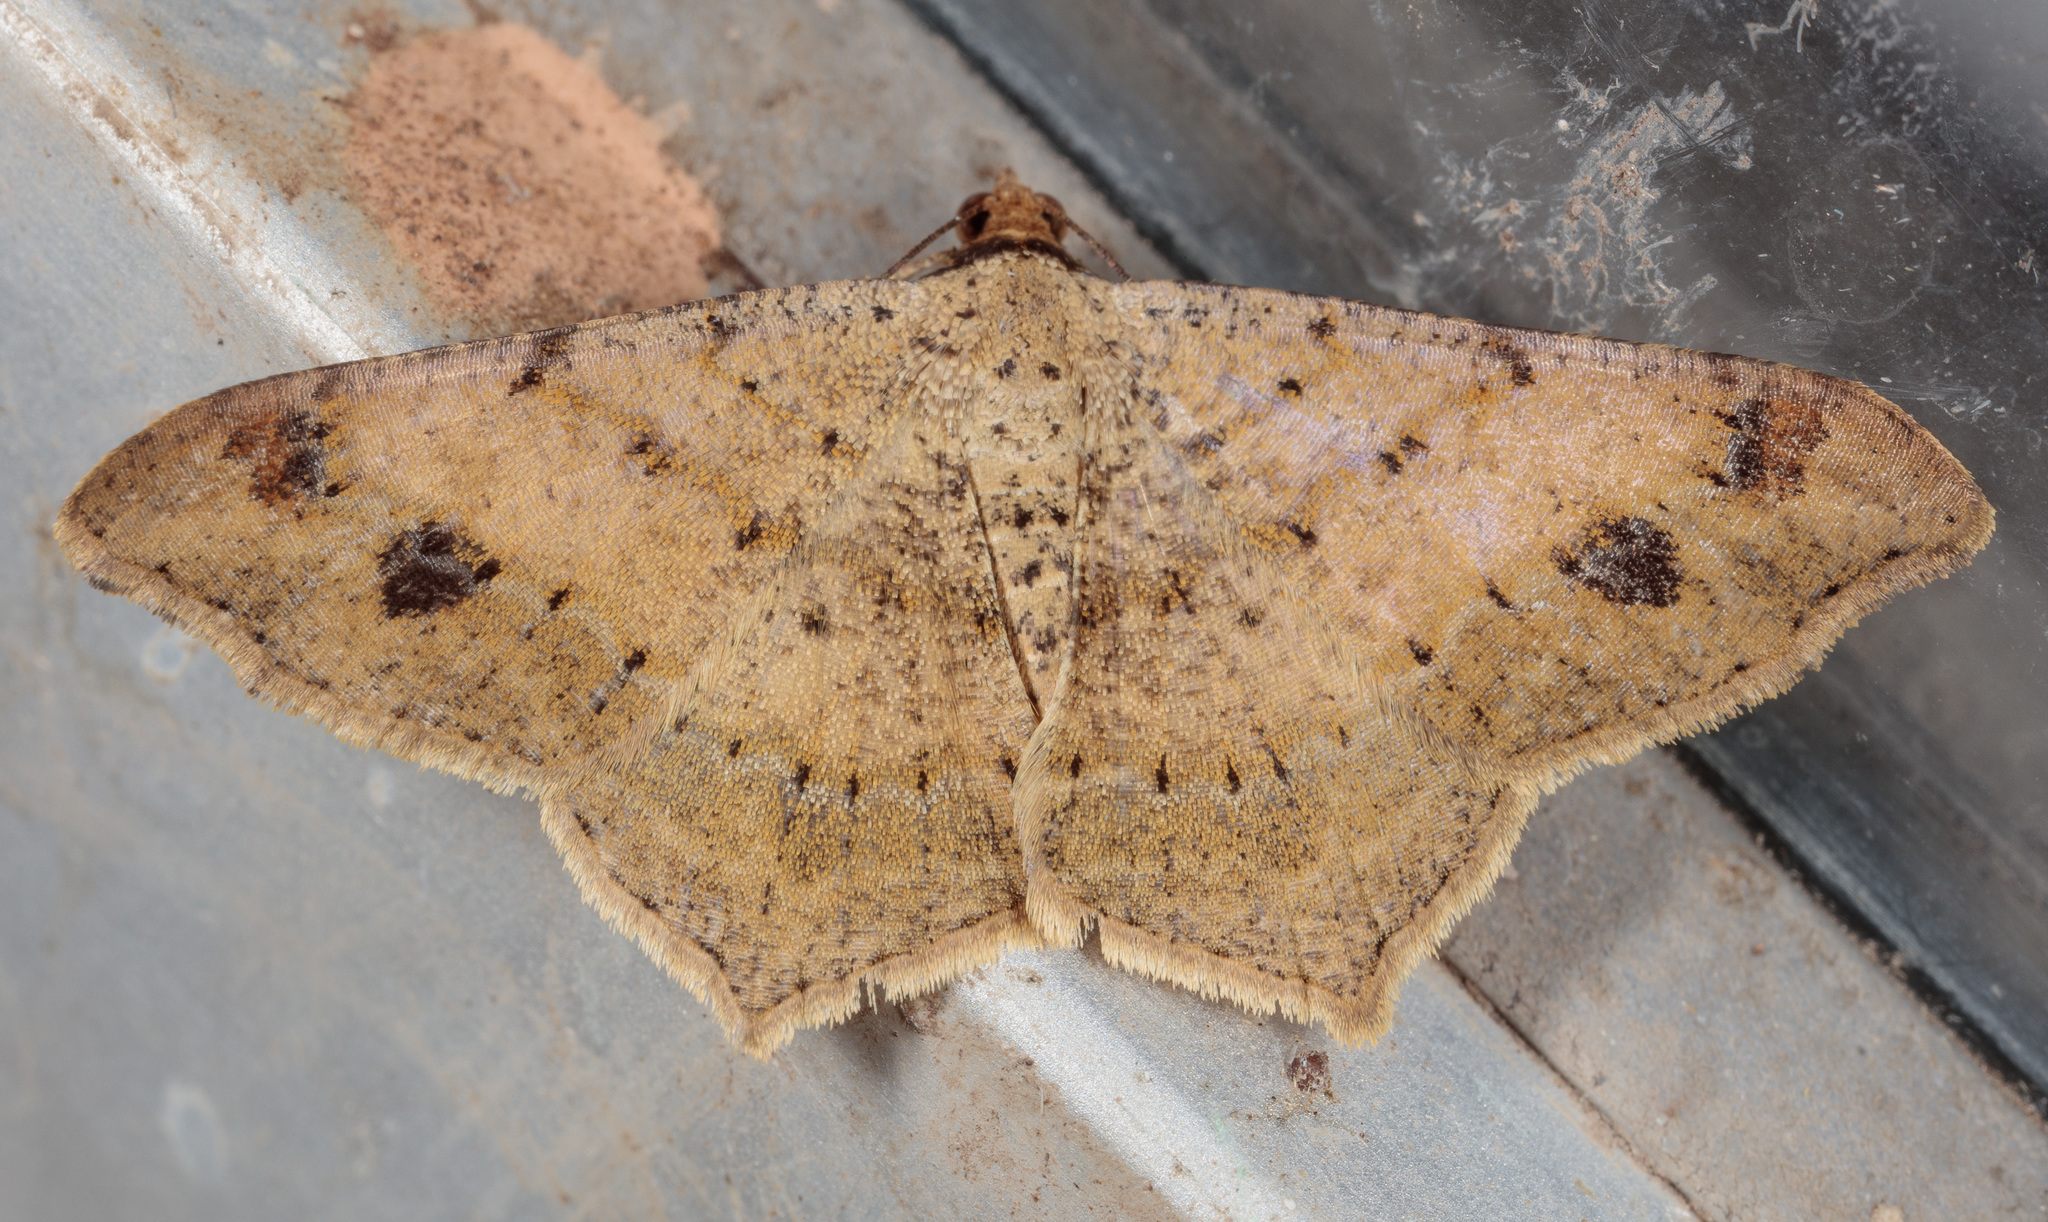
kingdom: Animalia
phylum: Arthropoda
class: Insecta
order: Lepidoptera
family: Geometridae
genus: Macaria
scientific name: Macaria abydata
